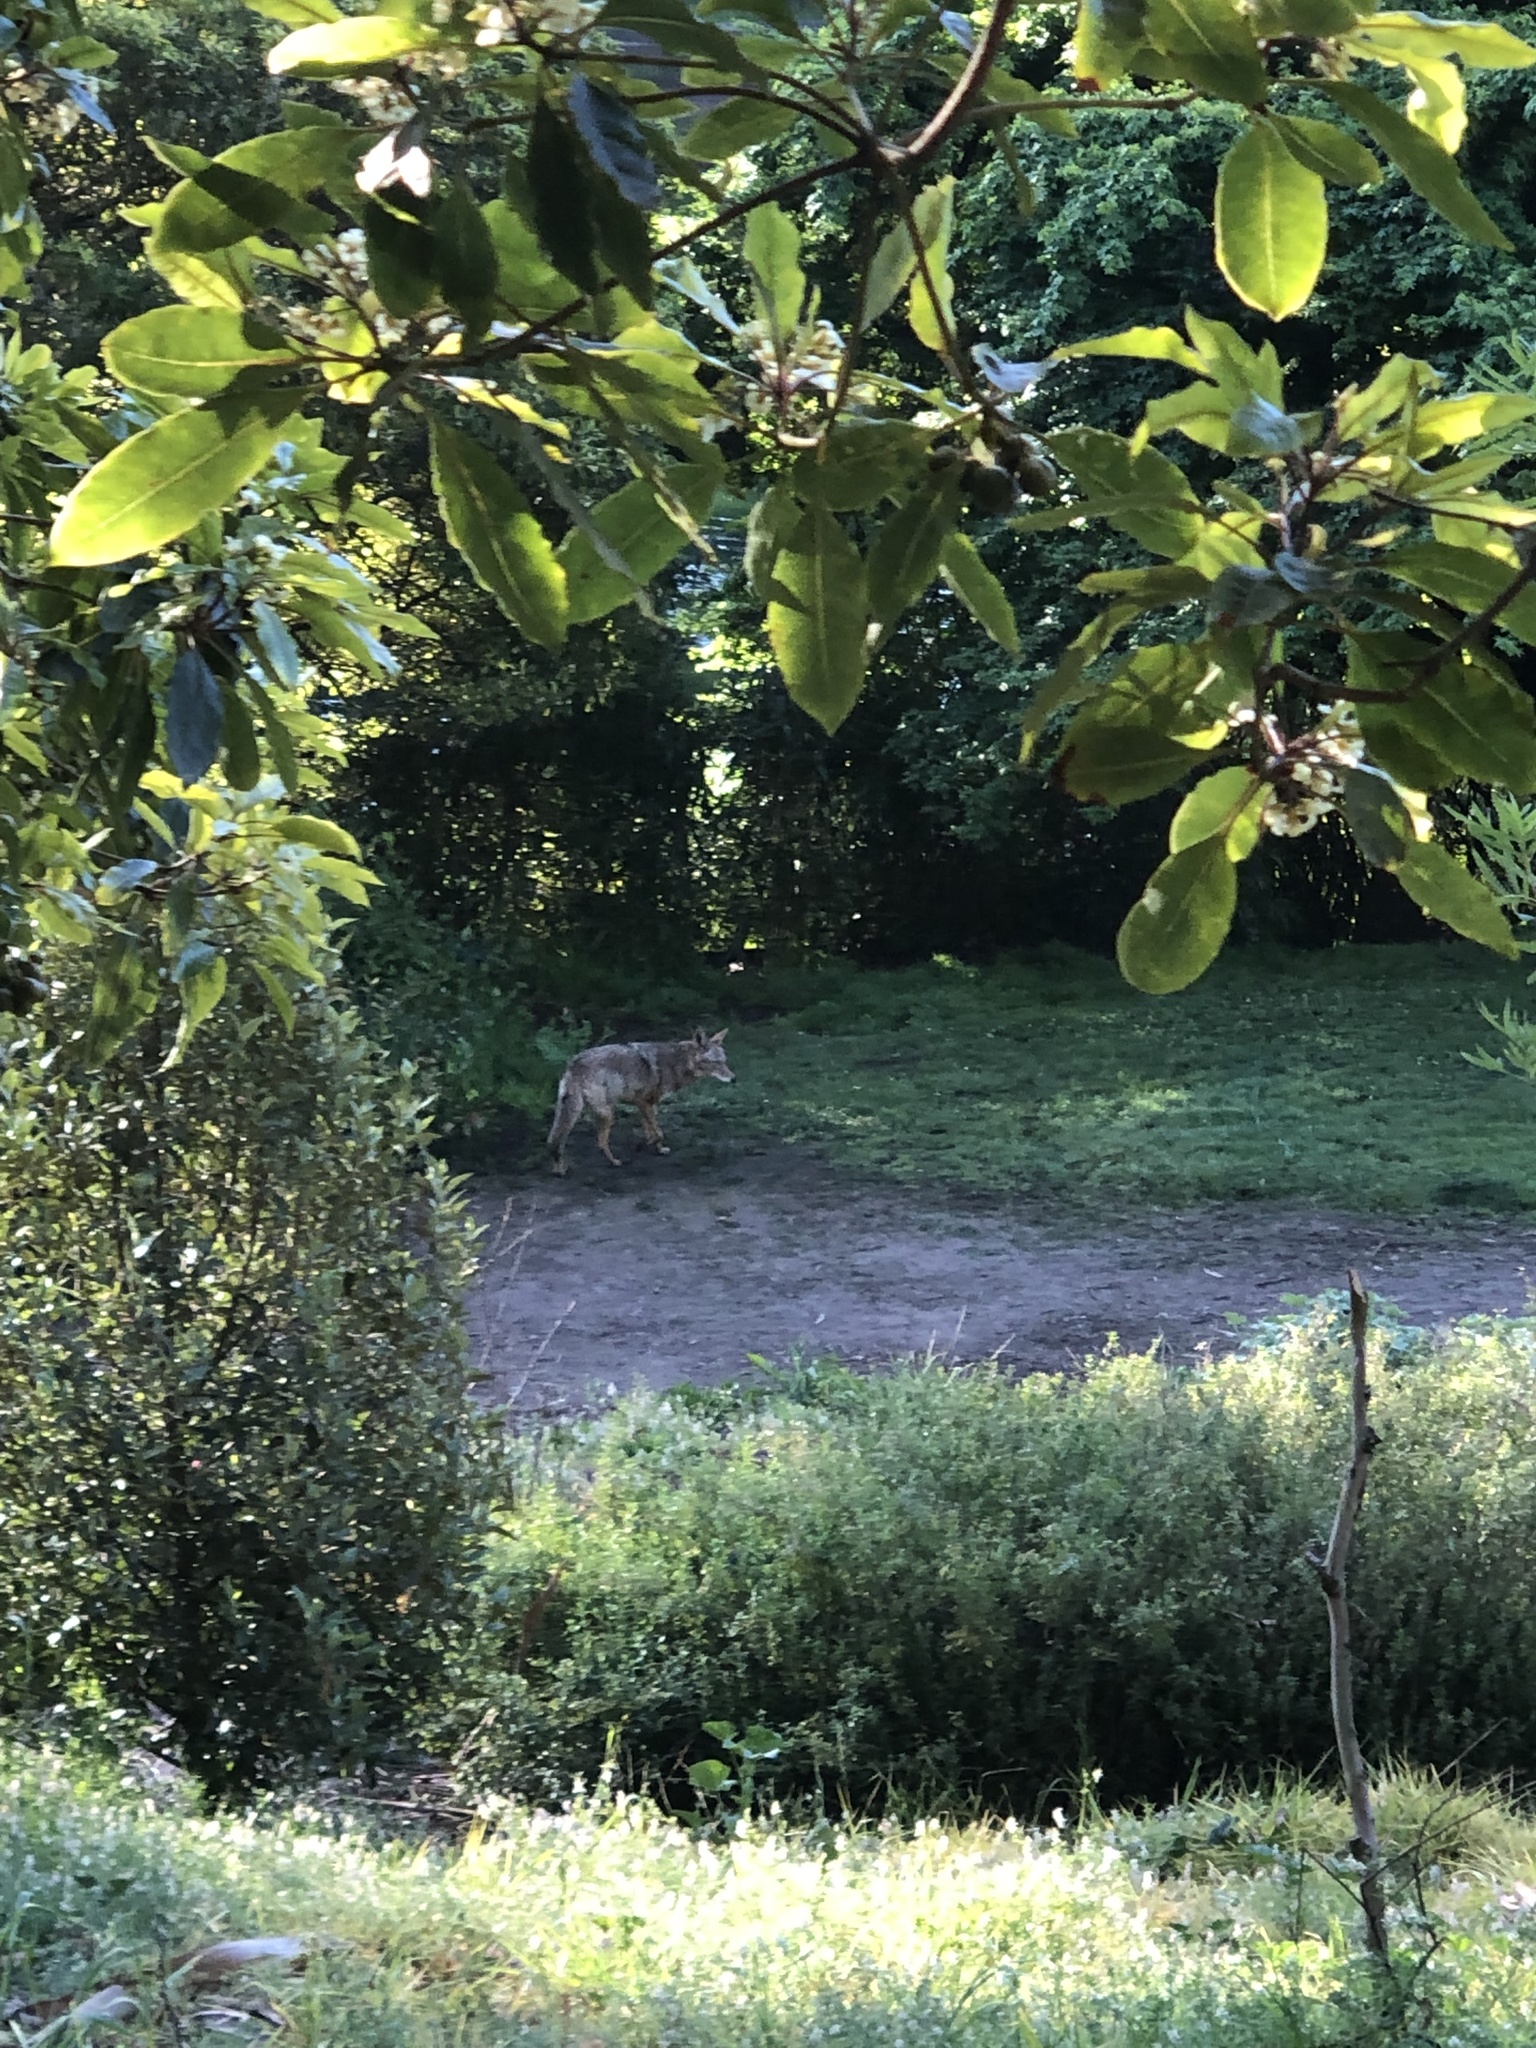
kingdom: Animalia
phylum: Chordata
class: Mammalia
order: Carnivora
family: Canidae
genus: Canis
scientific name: Canis latrans
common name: Coyote
